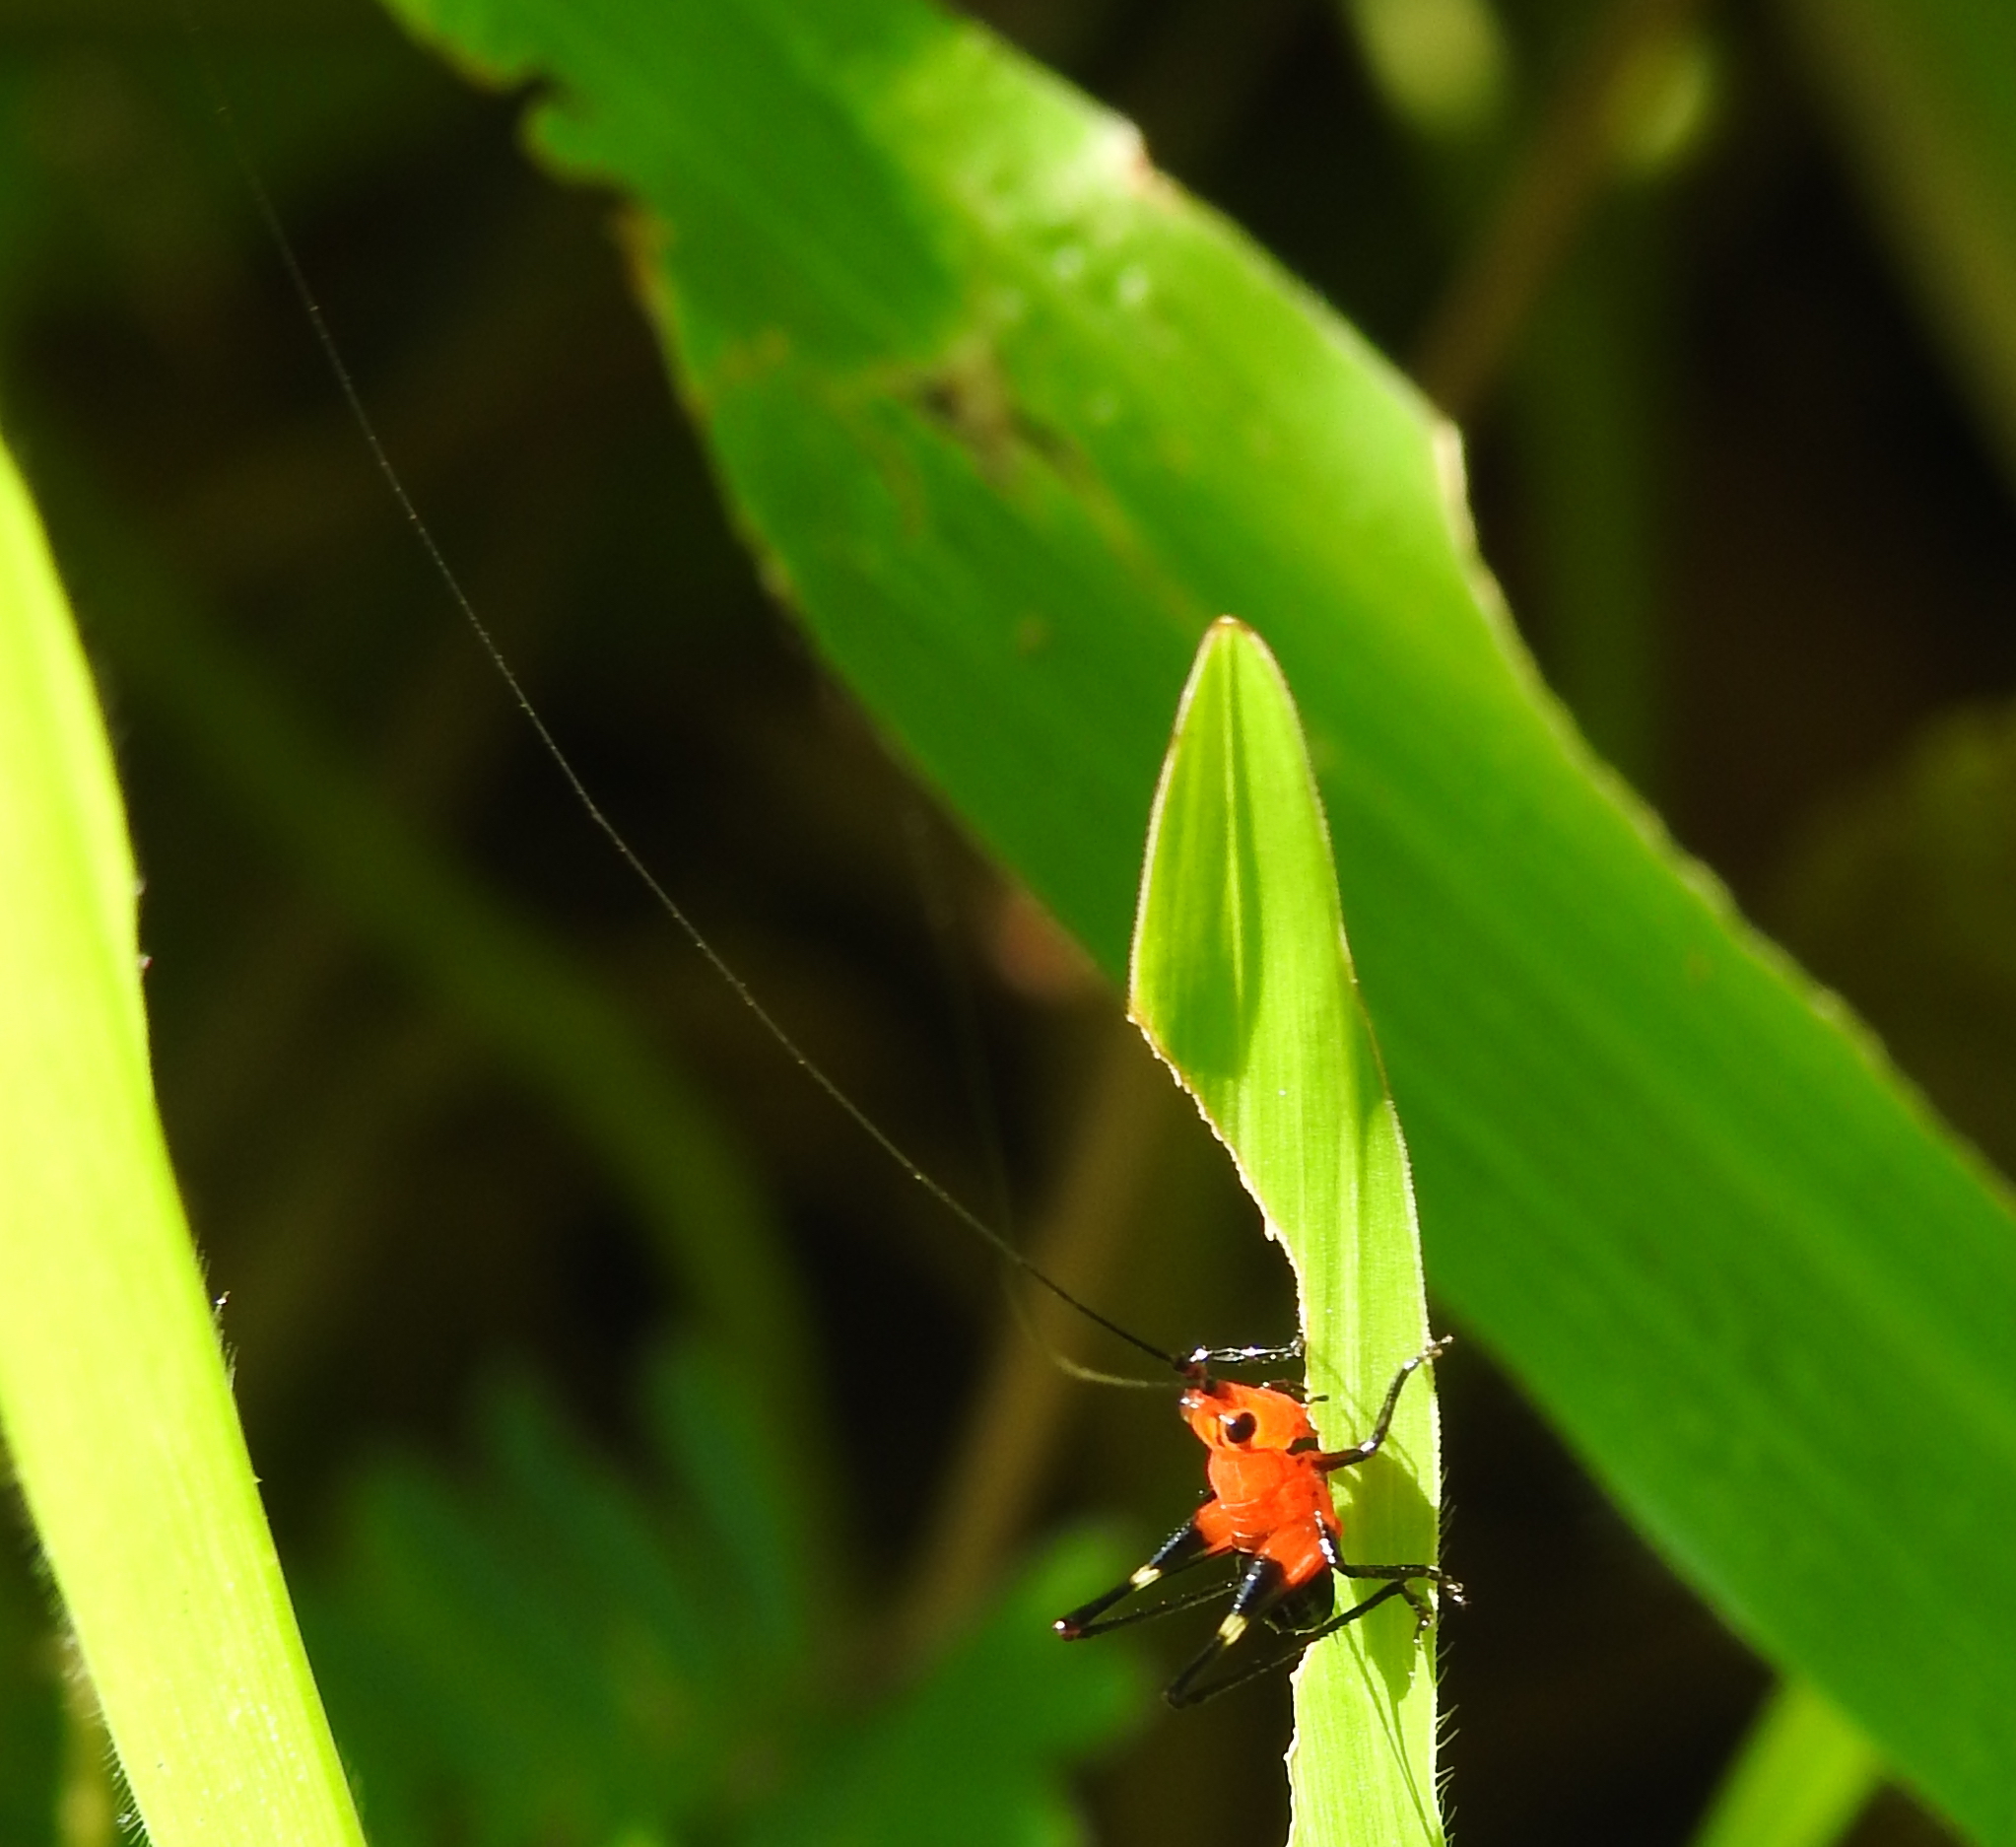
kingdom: Animalia
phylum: Arthropoda
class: Insecta
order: Orthoptera
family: Tettigoniidae
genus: Conocephalus
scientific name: Conocephalus melaenus
